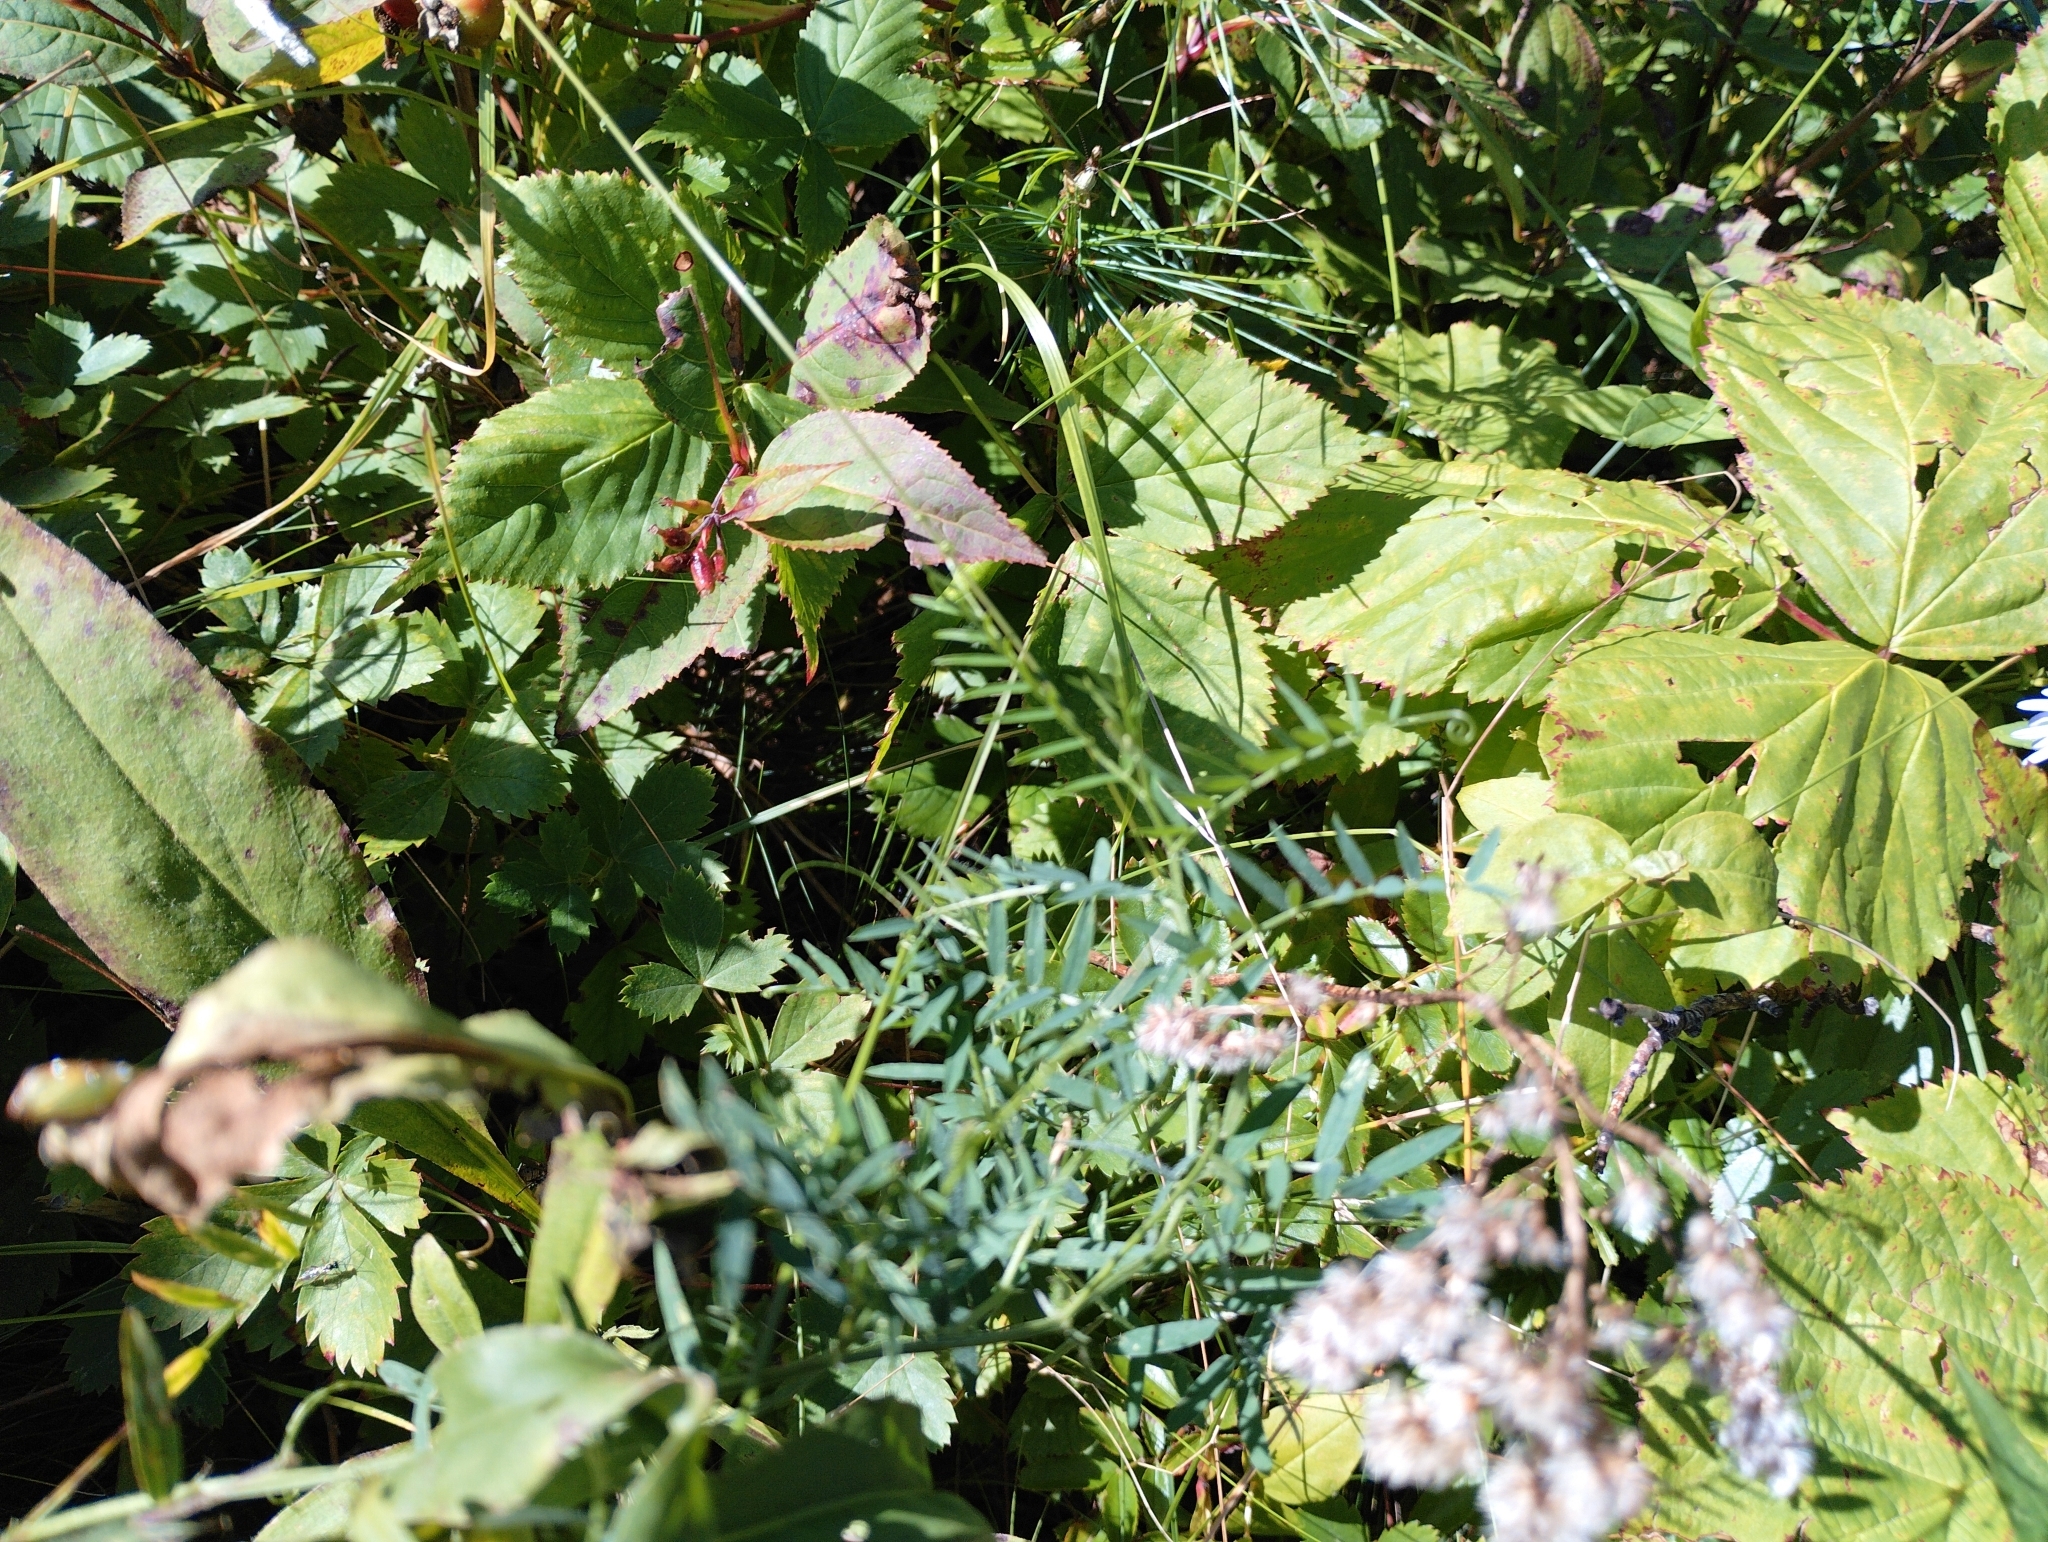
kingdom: Plantae
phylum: Tracheophyta
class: Magnoliopsida
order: Fabales
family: Fabaceae
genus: Vicia
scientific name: Vicia cracca
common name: Bird vetch
